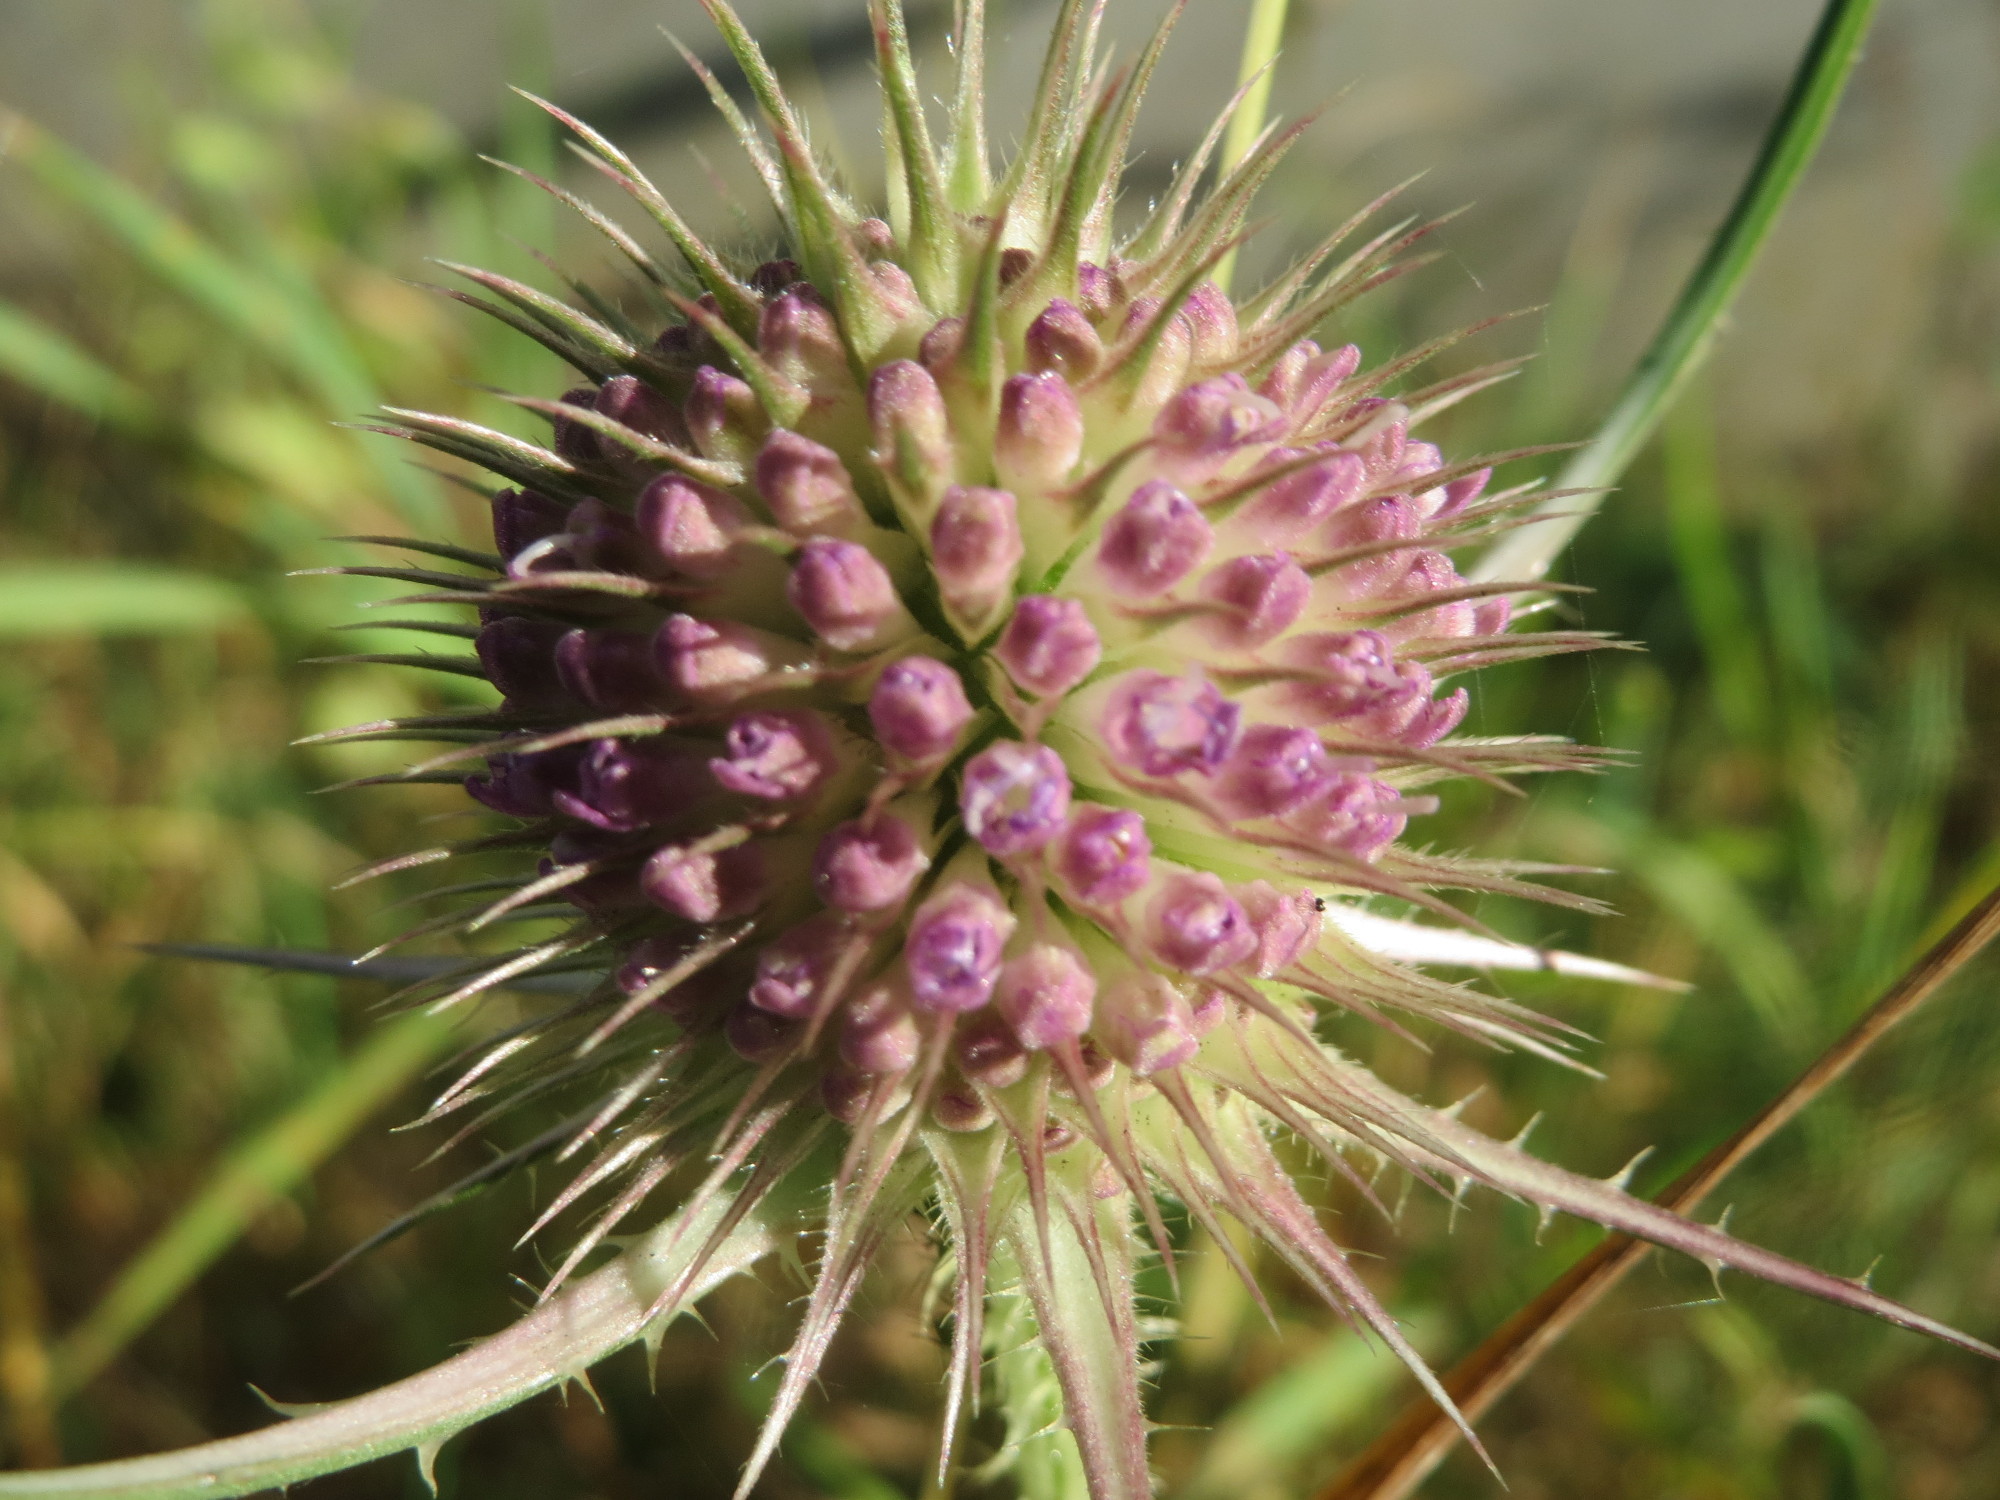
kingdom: Plantae
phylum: Tracheophyta
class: Magnoliopsida
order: Dipsacales
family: Caprifoliaceae
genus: Dipsacus
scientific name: Dipsacus fullonum
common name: Teasel
